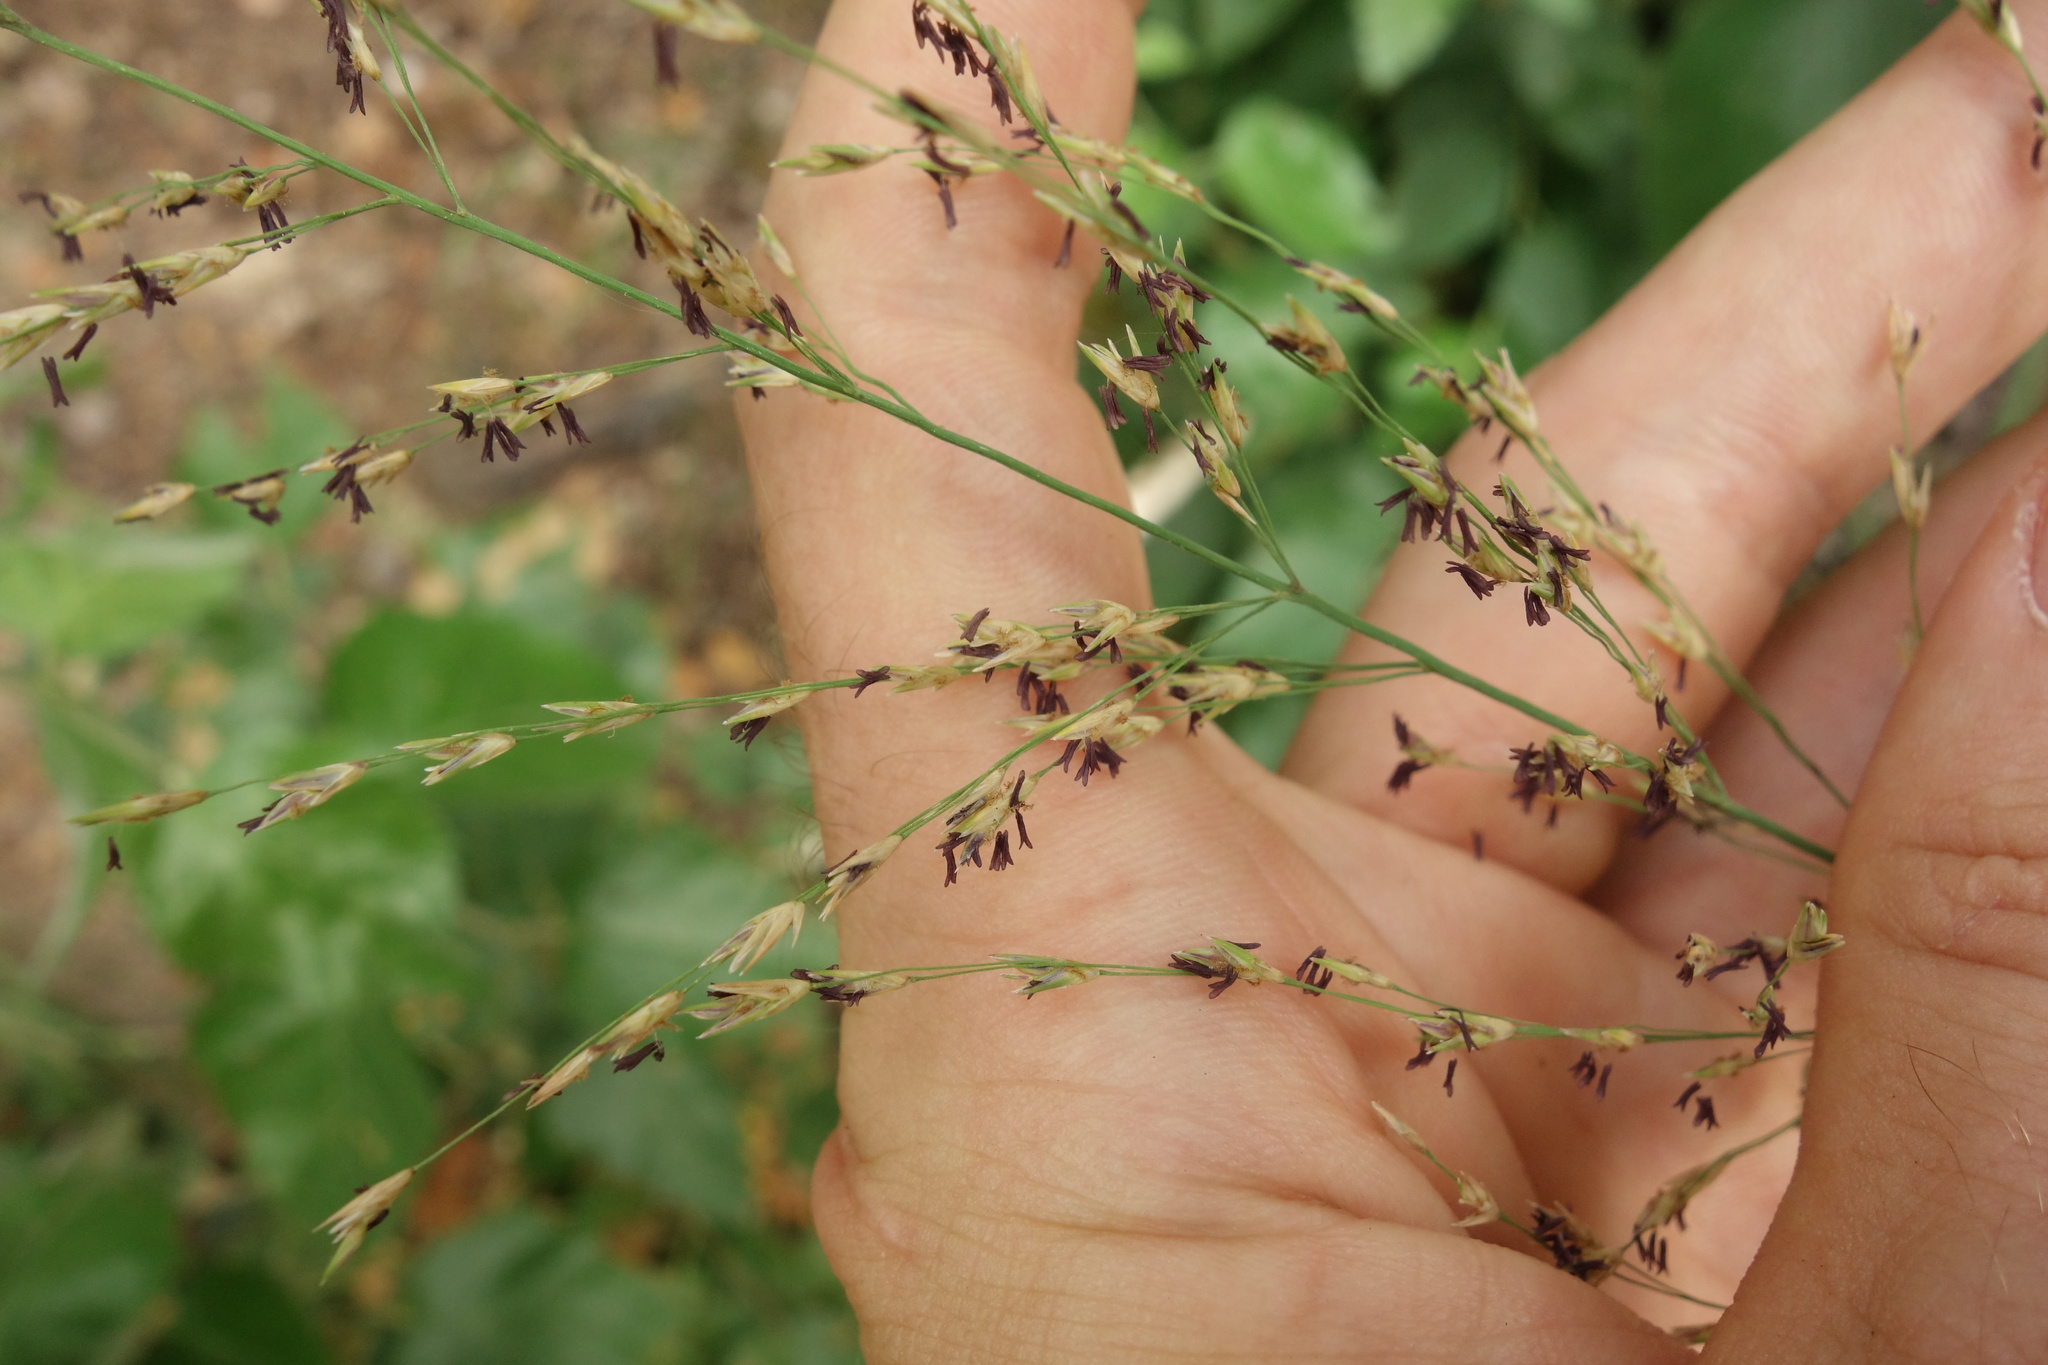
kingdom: Plantae
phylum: Tracheophyta
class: Liliopsida
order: Poales
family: Poaceae
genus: Molinia
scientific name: Molinia caerulea
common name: Purple moor-grass
